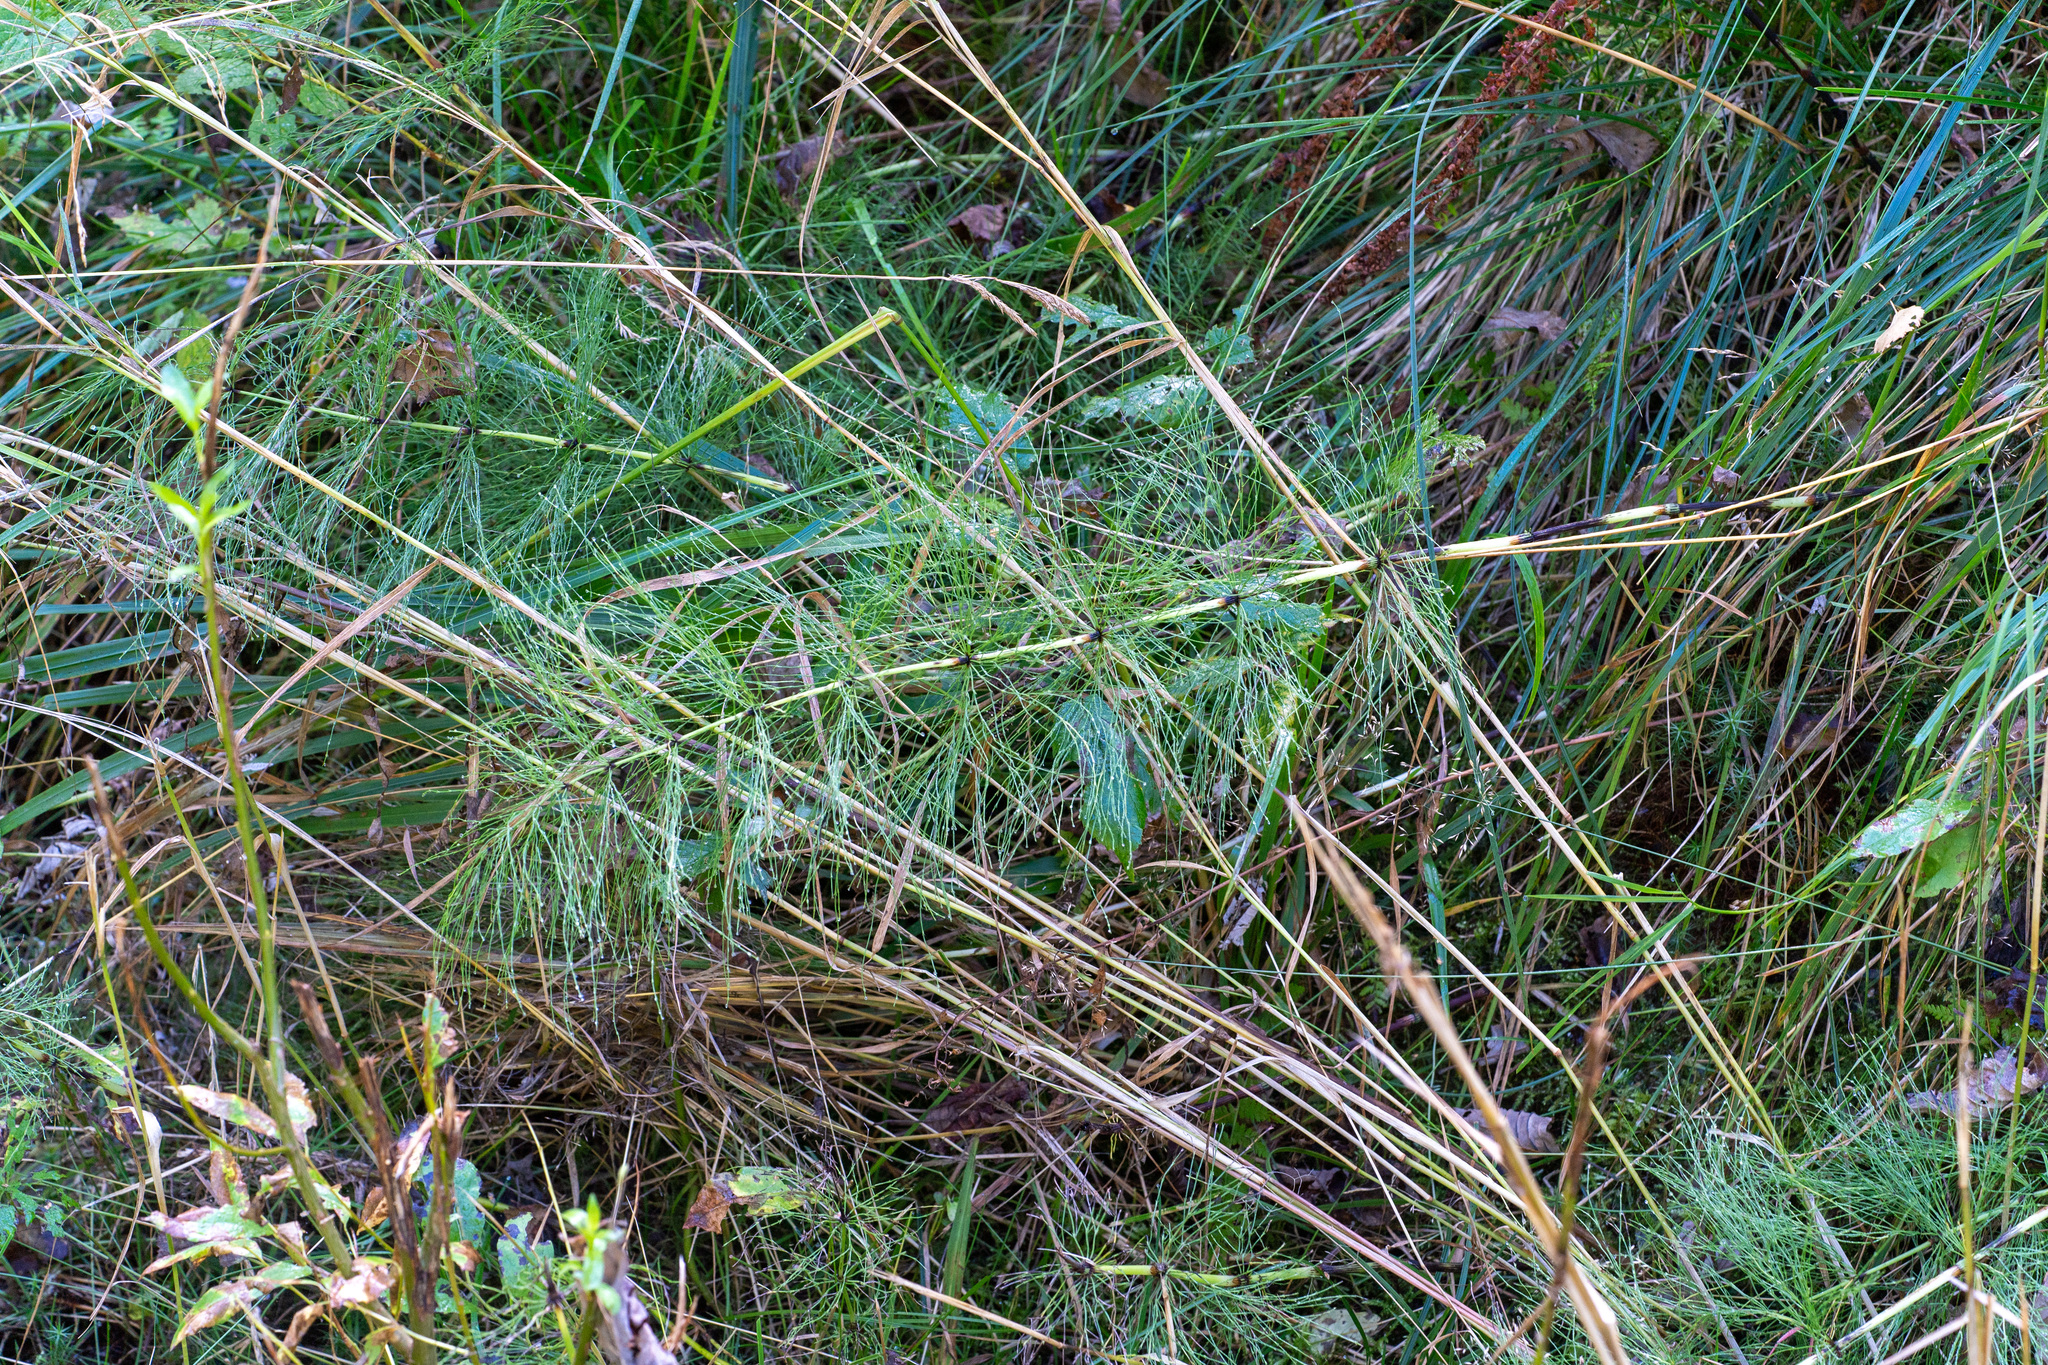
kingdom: Plantae
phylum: Tracheophyta
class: Polypodiopsida
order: Equisetales
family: Equisetaceae
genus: Equisetum
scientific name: Equisetum sylvaticum
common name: Wood horsetail
